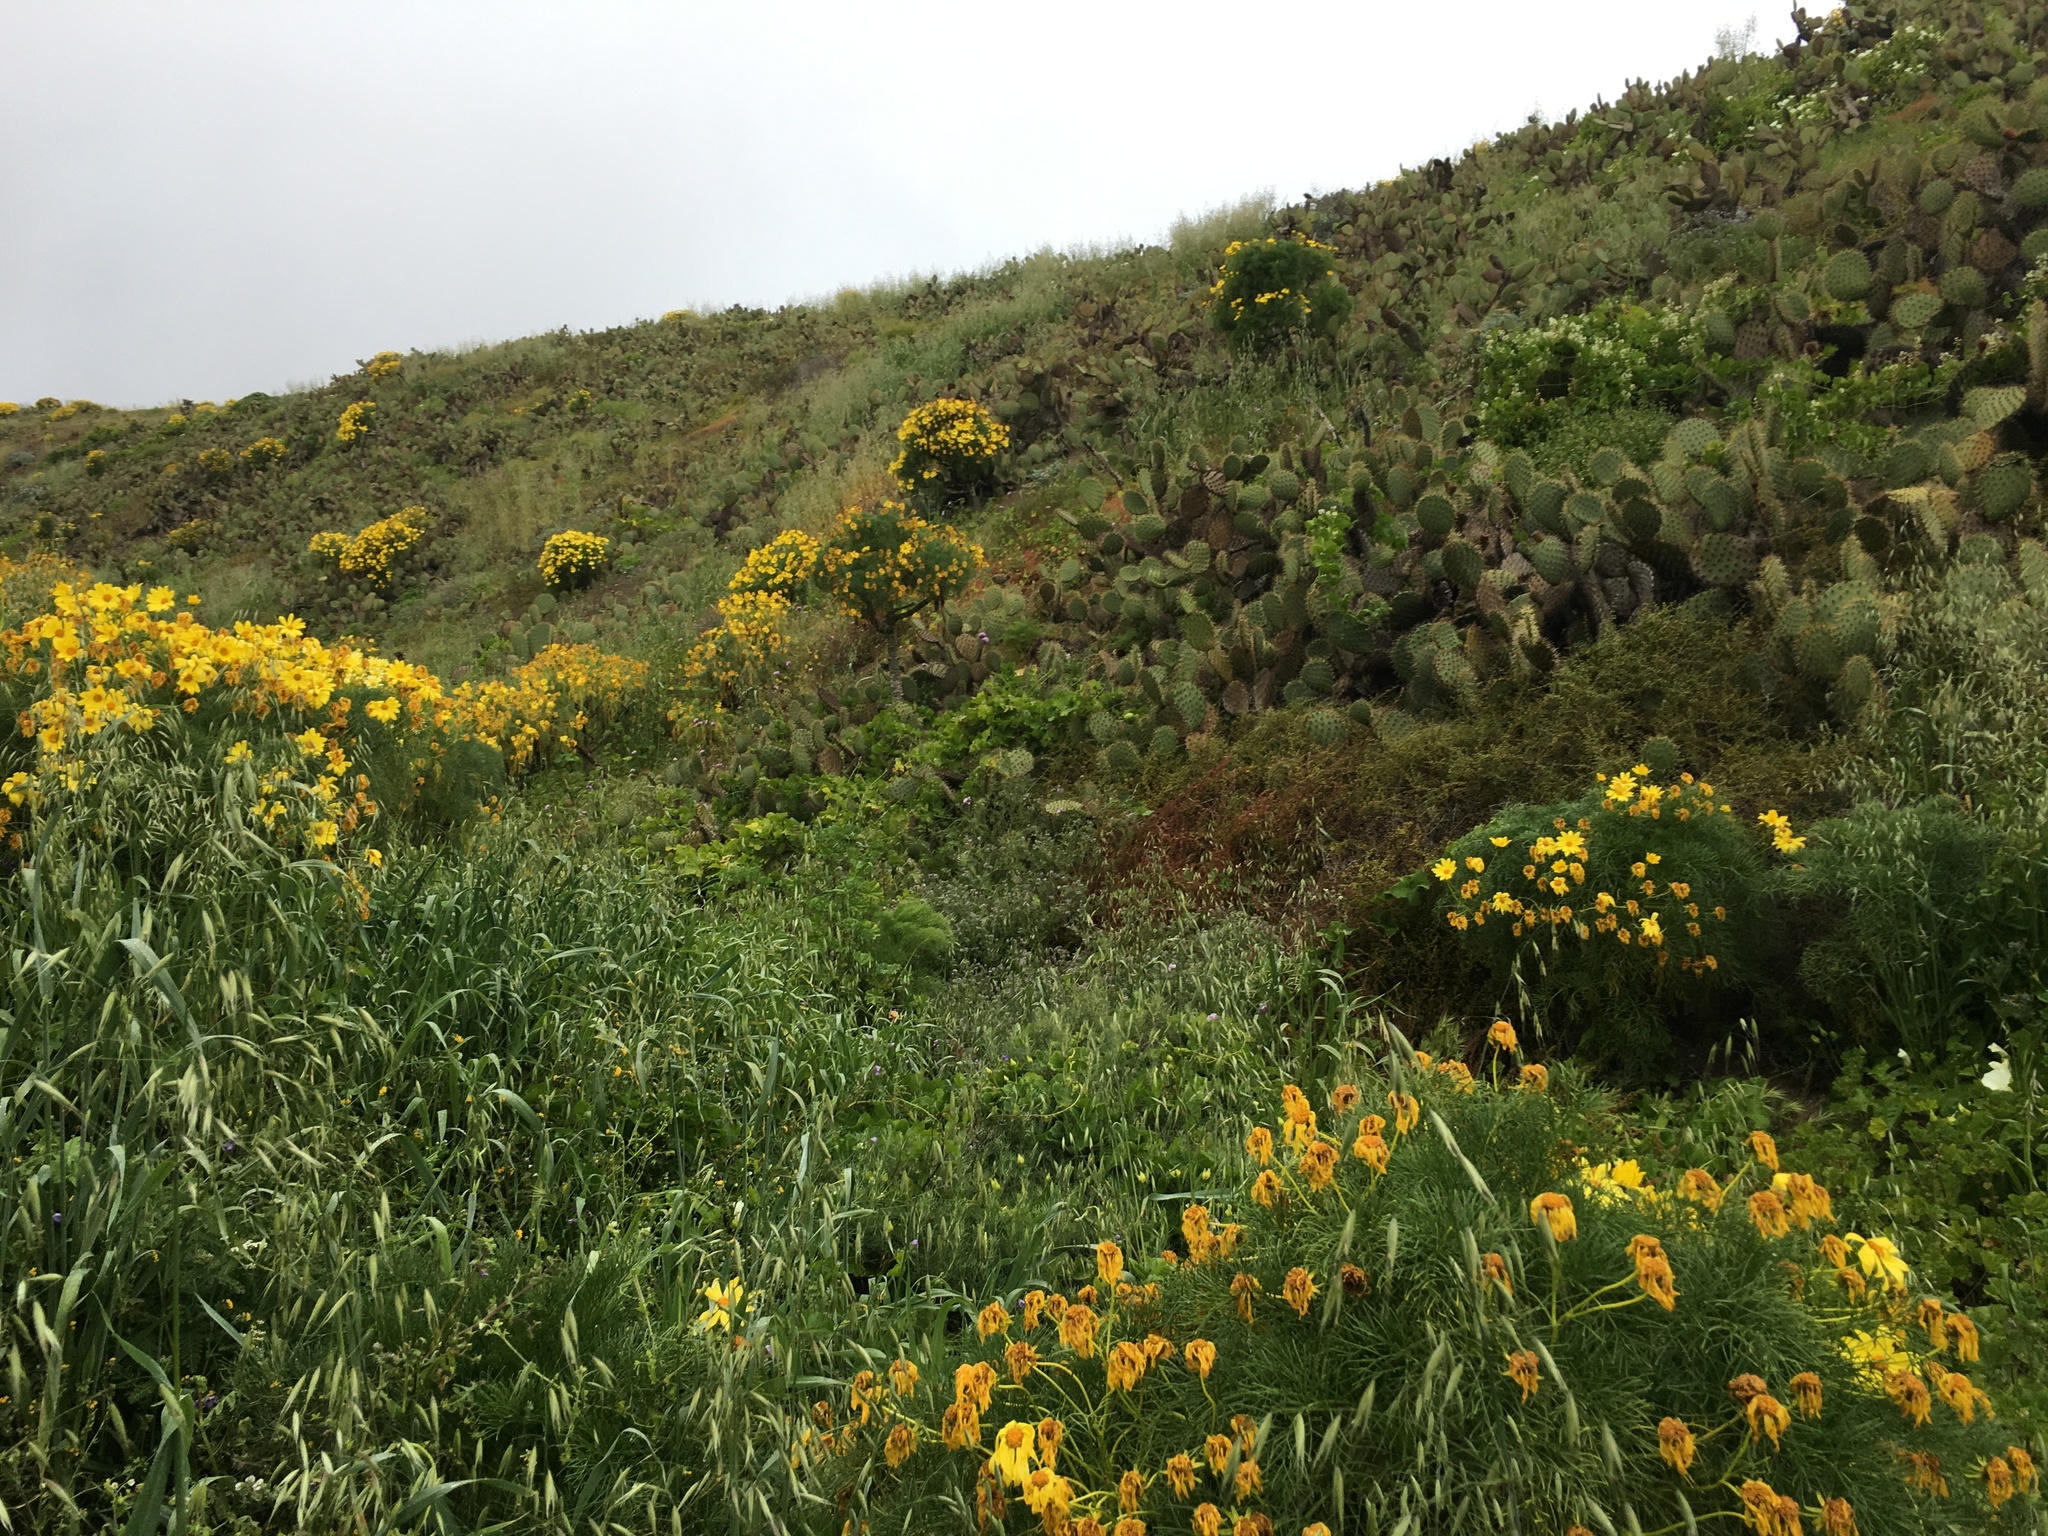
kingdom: Plantae
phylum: Tracheophyta
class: Magnoliopsida
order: Asterales
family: Asteraceae
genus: Coreopsis
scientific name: Coreopsis gigantea
